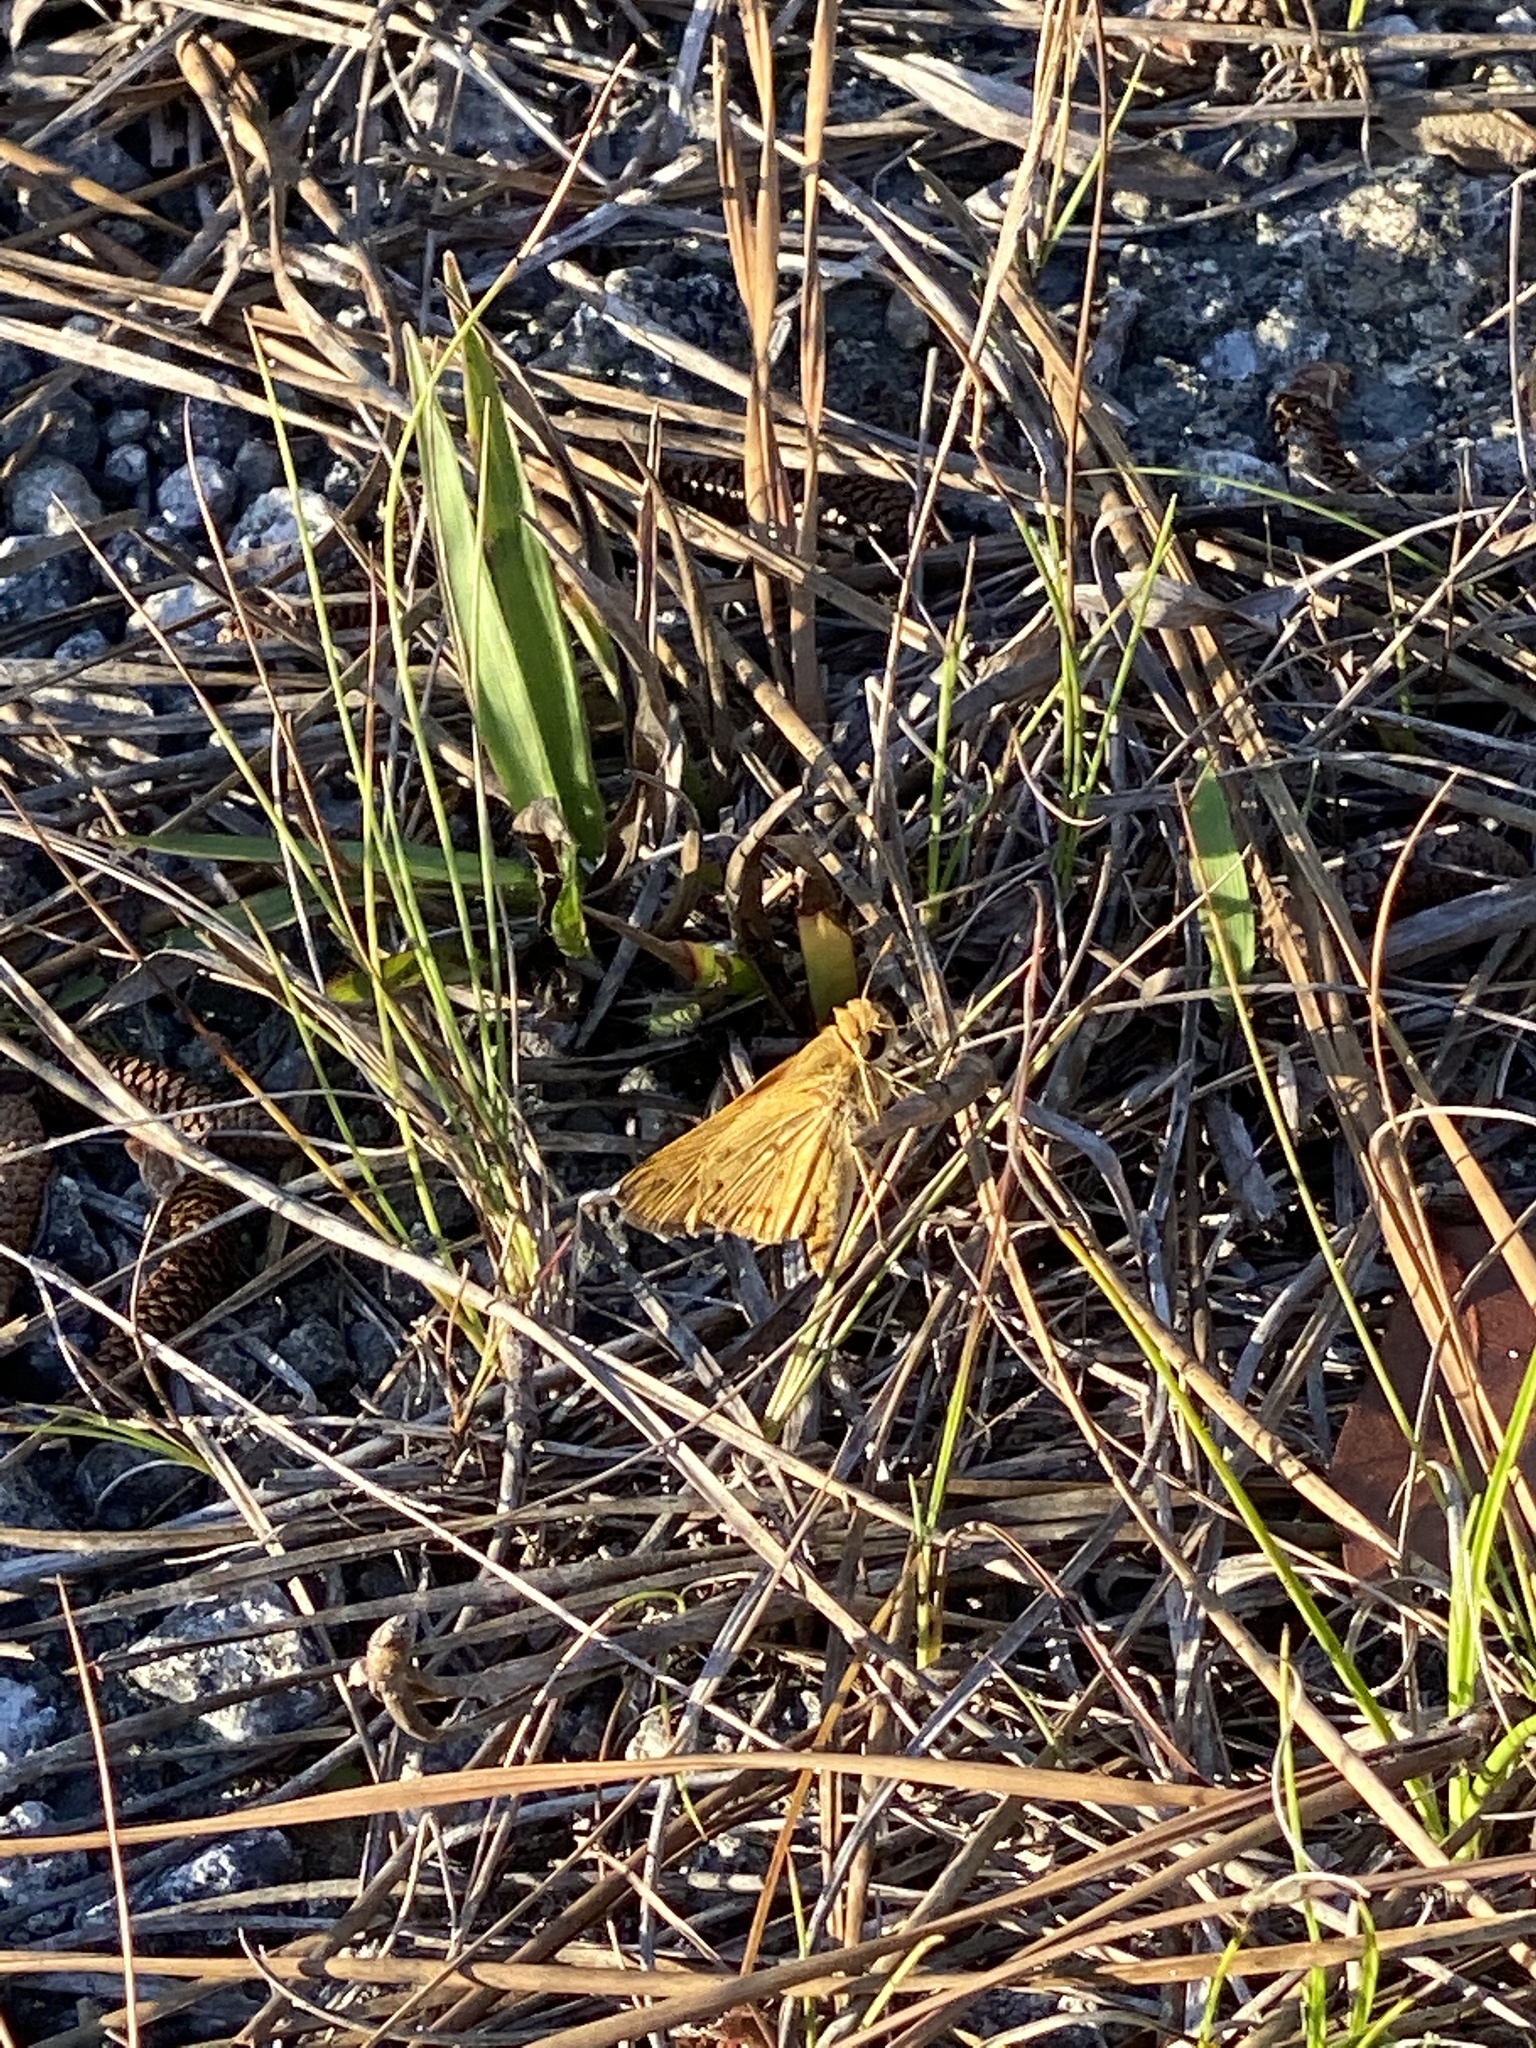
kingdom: Animalia
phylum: Arthropoda
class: Insecta
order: Lepidoptera
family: Hesperiidae
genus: Hylephila
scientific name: Hylephila phyleus
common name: Fiery skipper
